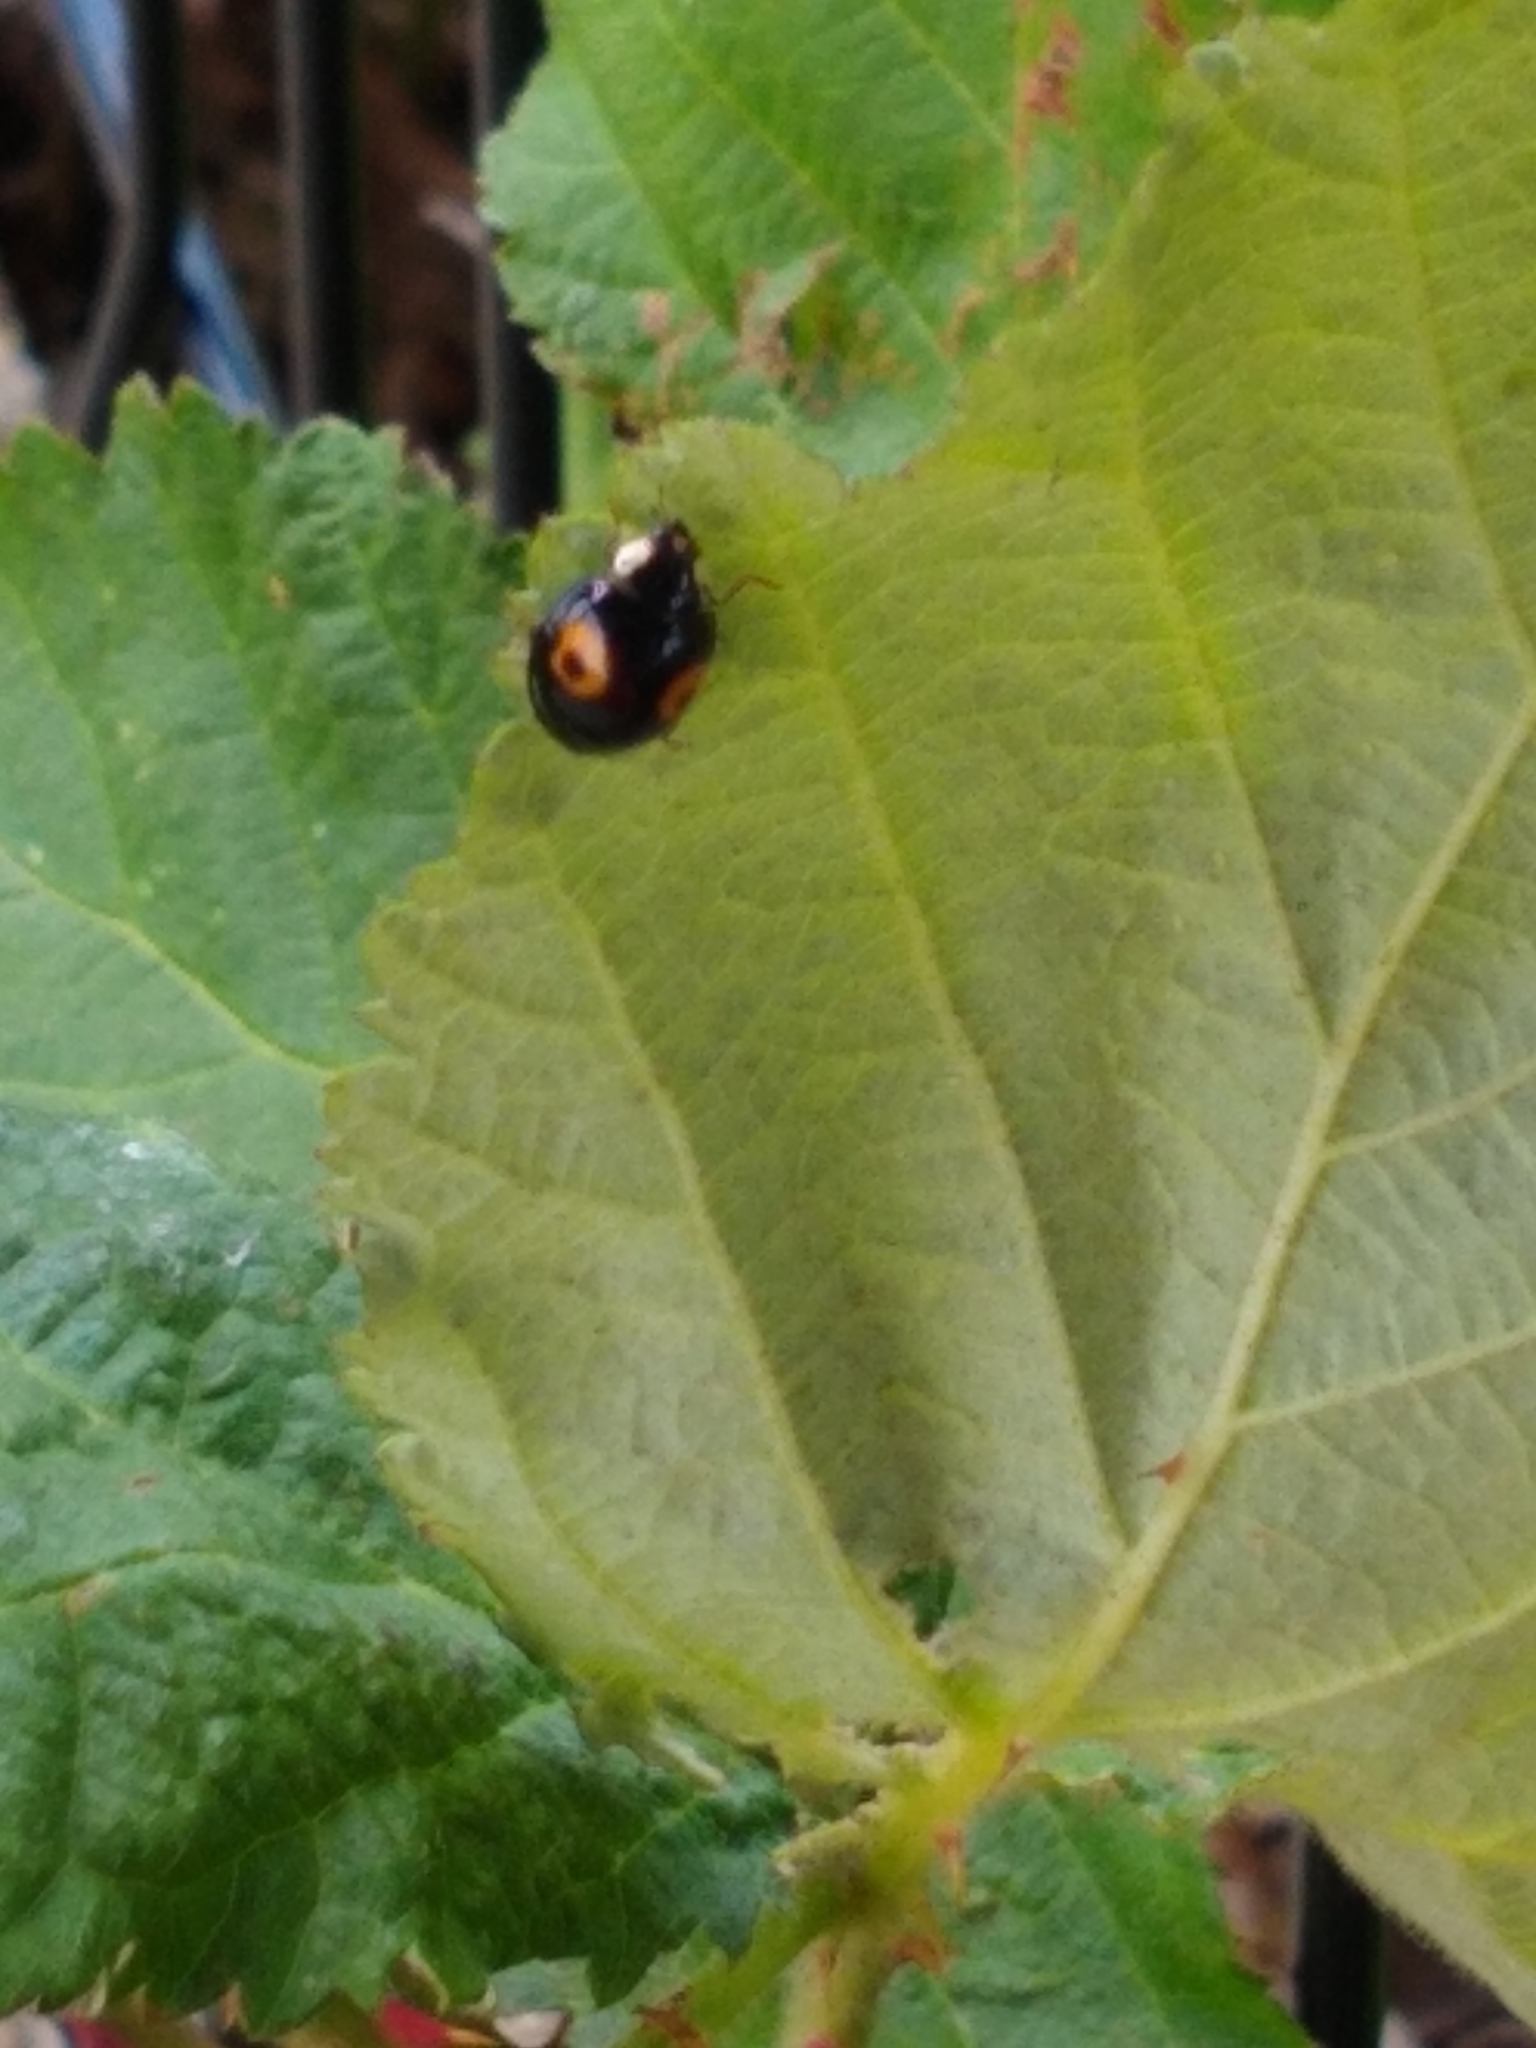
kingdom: Animalia
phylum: Arthropoda
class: Insecta
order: Coleoptera
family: Coccinellidae
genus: Harmonia
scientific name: Harmonia axyridis
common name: Harlequin ladybird
